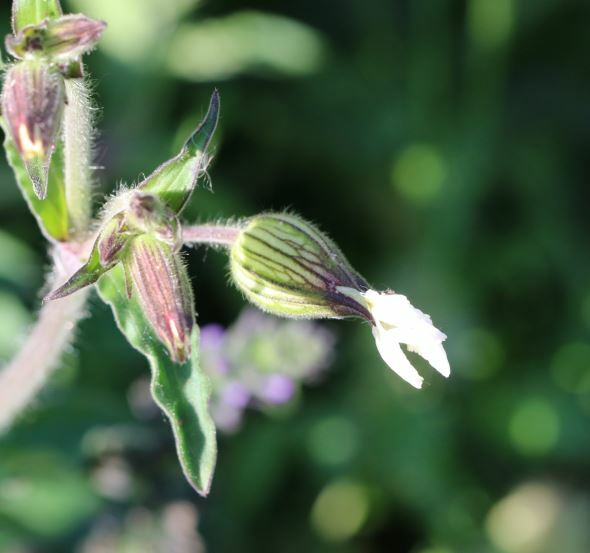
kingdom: Plantae
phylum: Tracheophyta
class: Magnoliopsida
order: Caryophyllales
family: Caryophyllaceae
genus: Silene
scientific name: Silene latifolia
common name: White campion
